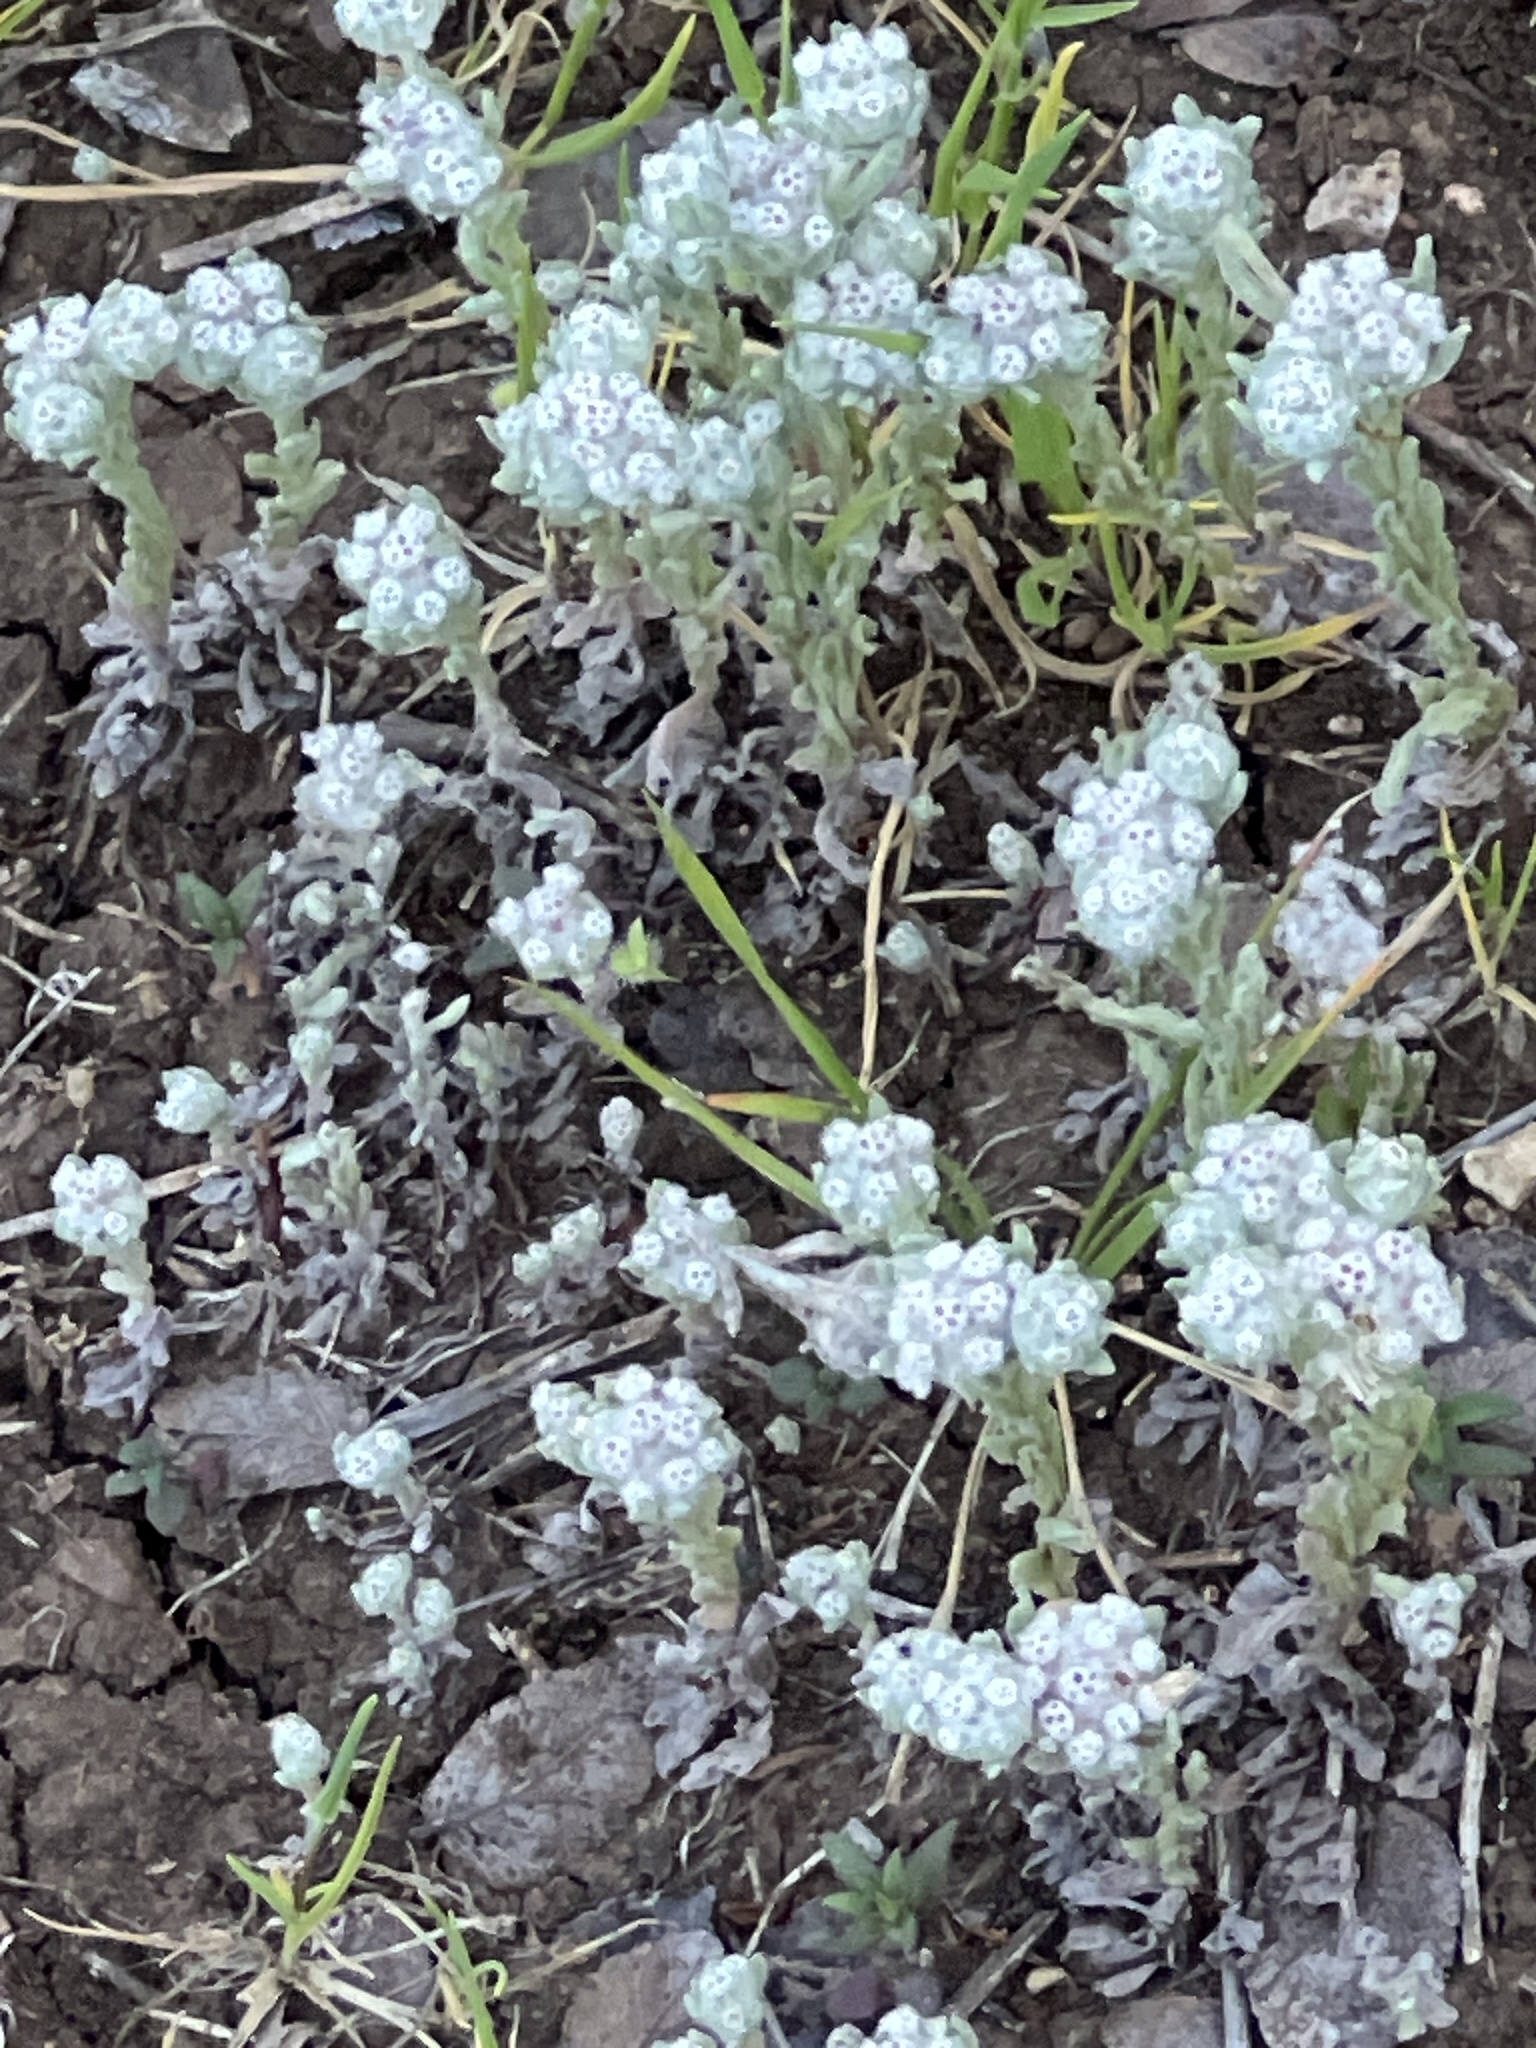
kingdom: Plantae
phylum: Tracheophyta
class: Magnoliopsida
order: Asterales
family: Asteraceae
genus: Diaperia
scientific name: Diaperia verna
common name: Many-stem rabbit-tobacco
